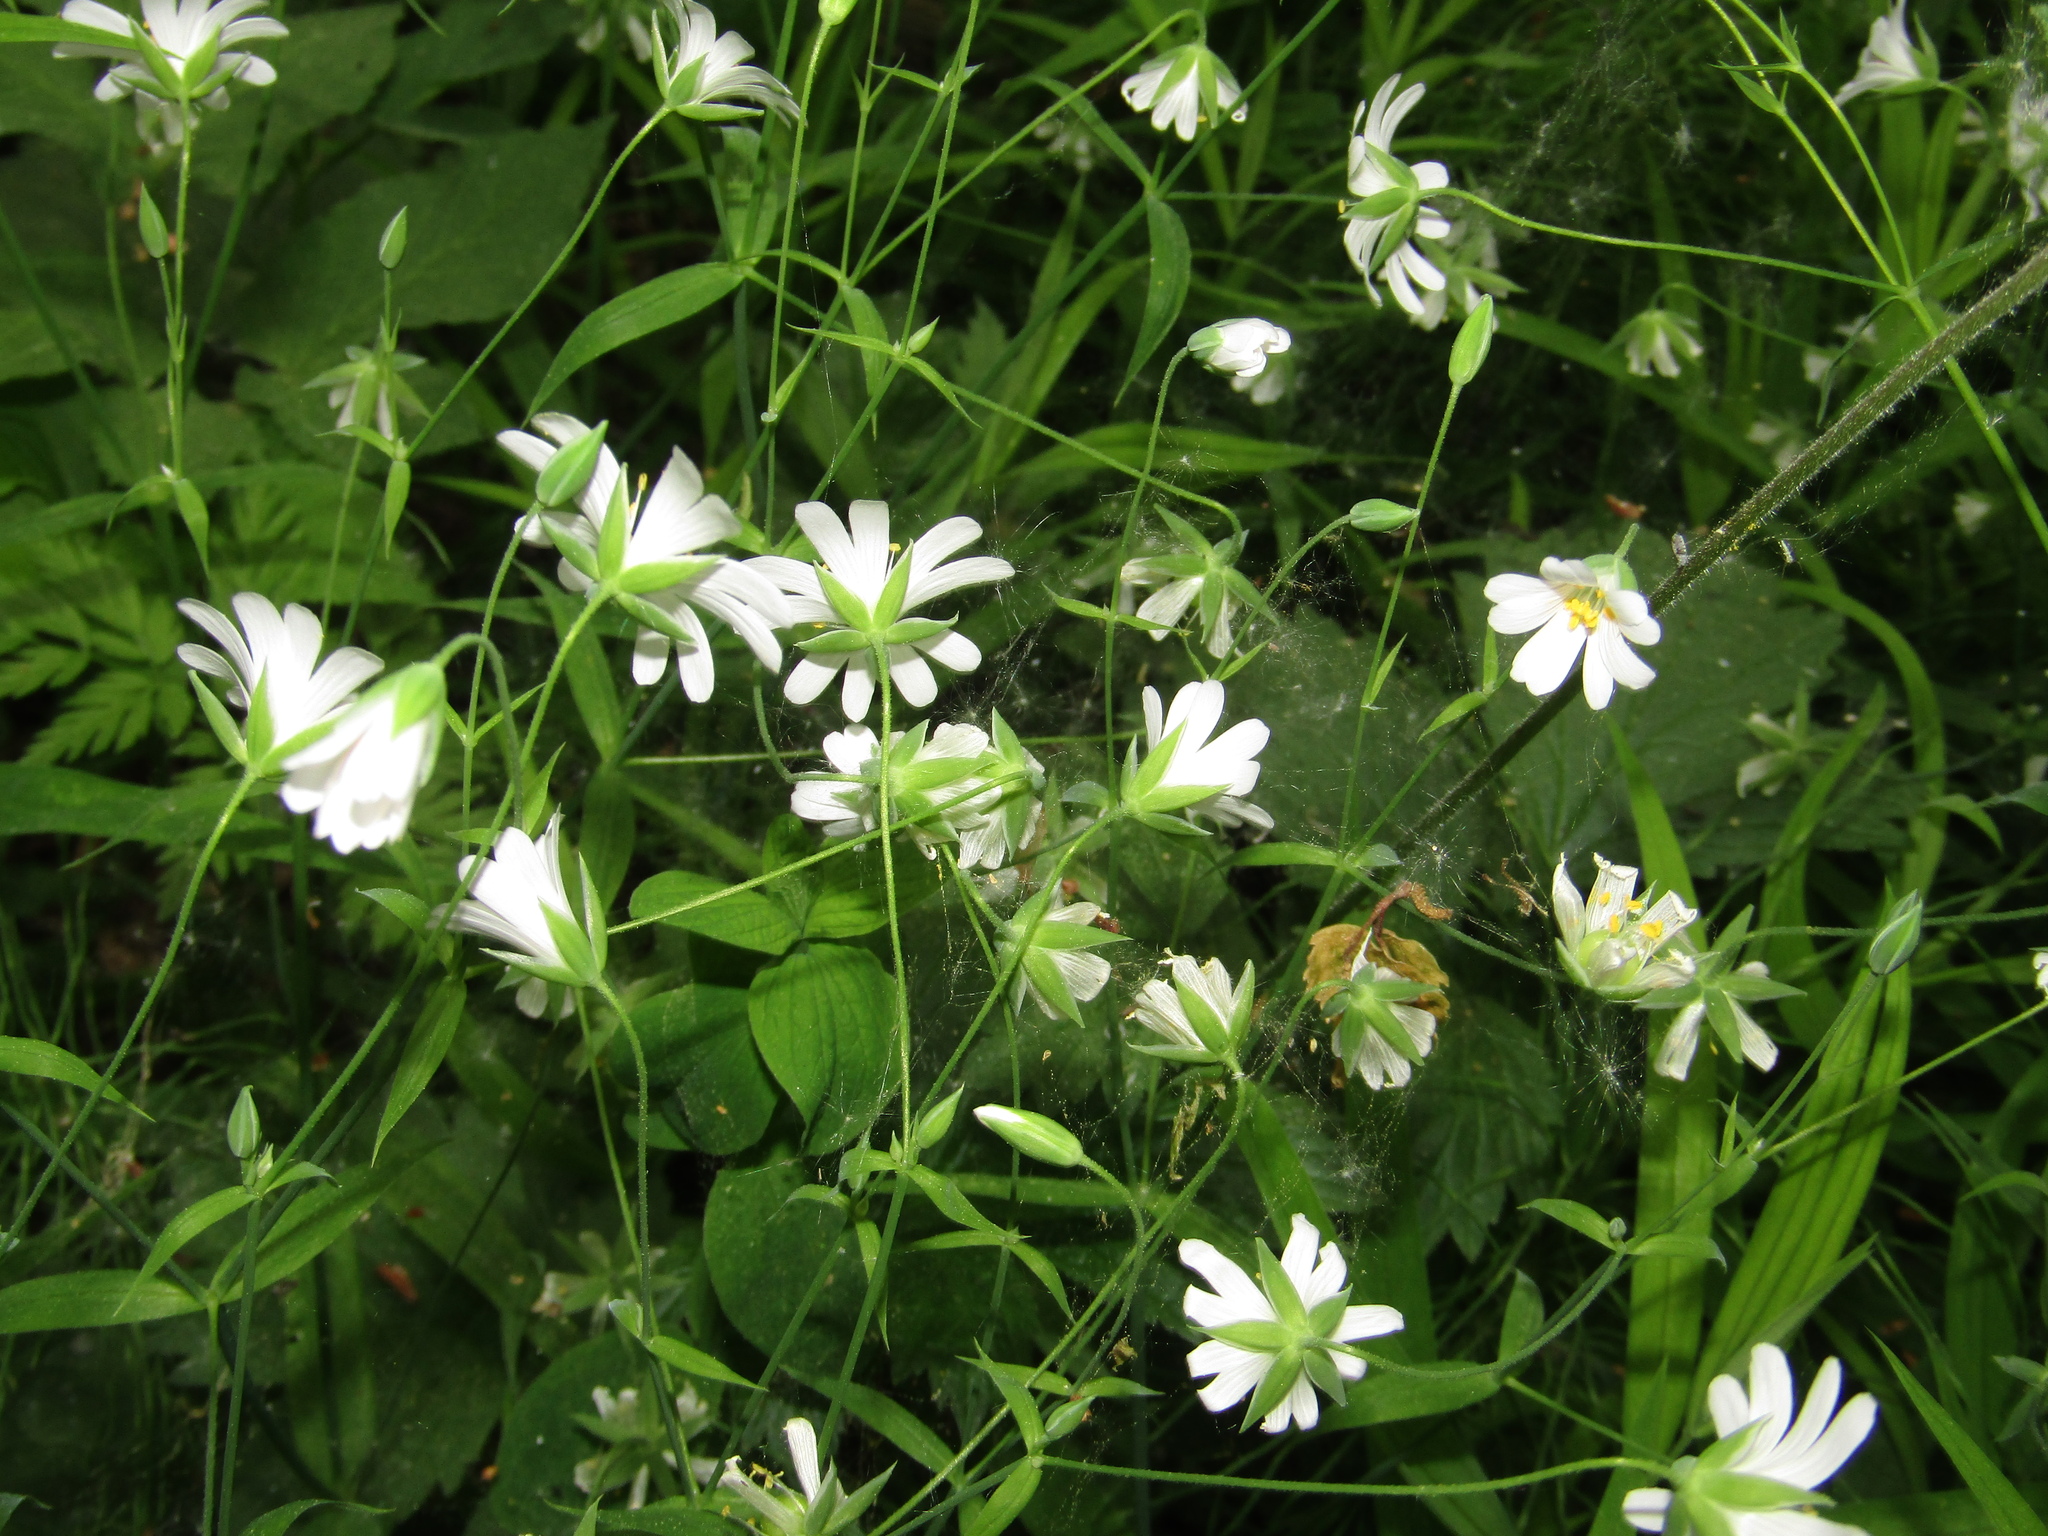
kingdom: Plantae
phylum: Tracheophyta
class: Magnoliopsida
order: Caryophyllales
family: Caryophyllaceae
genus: Rabelera
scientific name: Rabelera holostea
